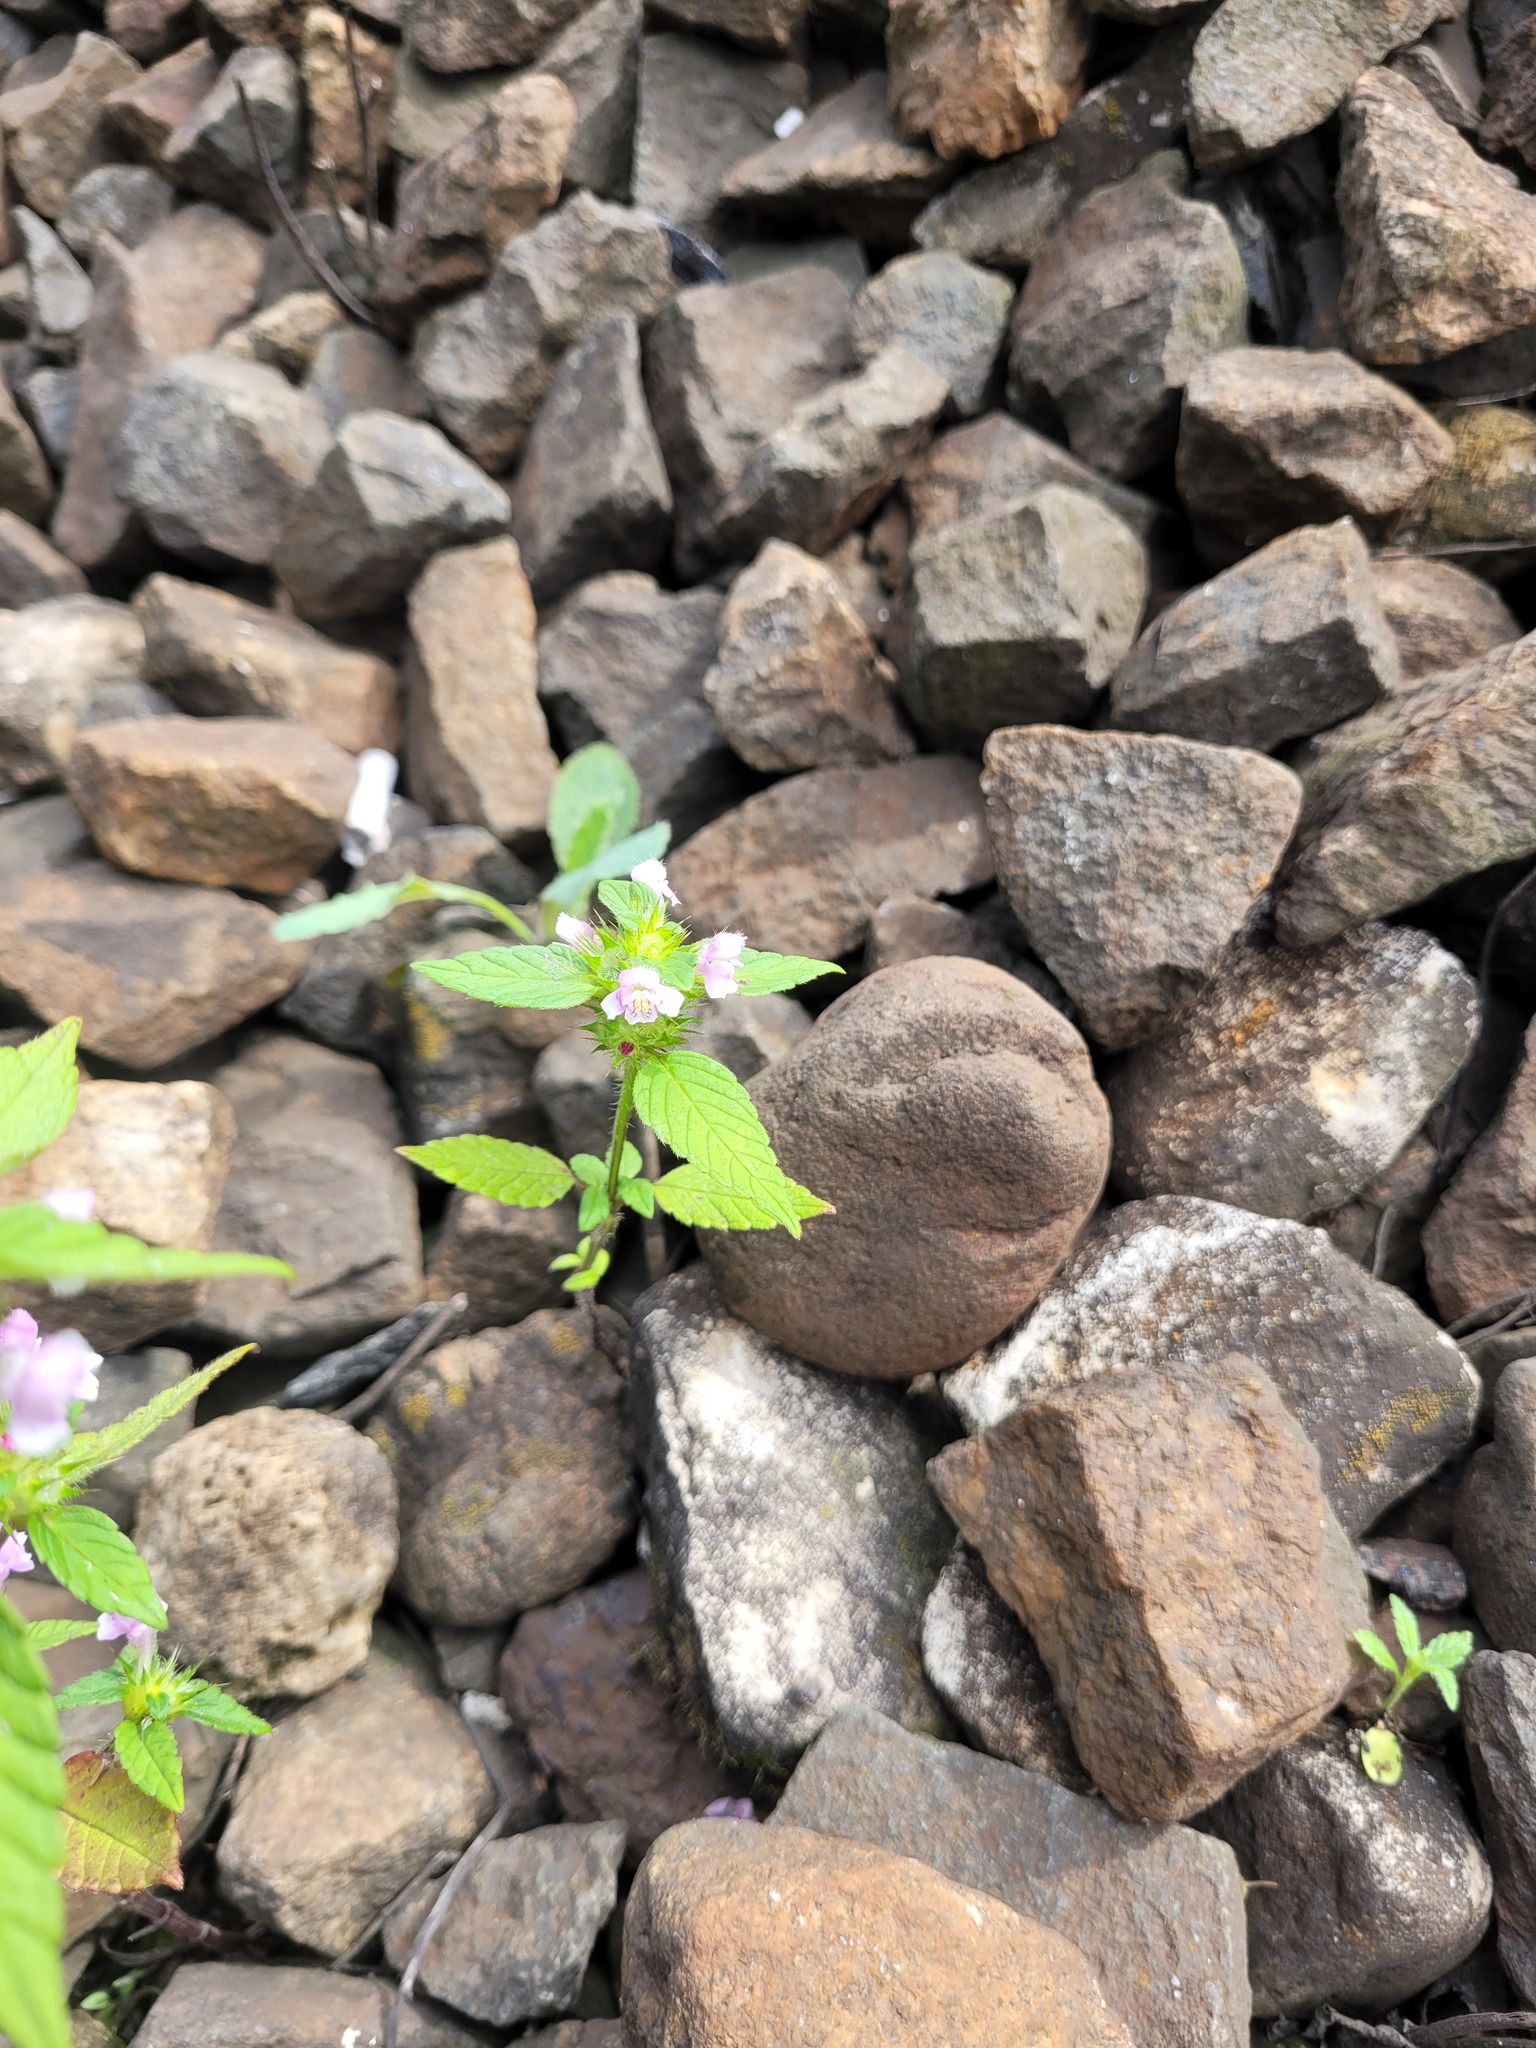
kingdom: Plantae
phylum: Tracheophyta
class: Magnoliopsida
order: Lamiales
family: Lamiaceae
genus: Galeopsis
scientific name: Galeopsis tetrahit
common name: Common hemp-nettle
